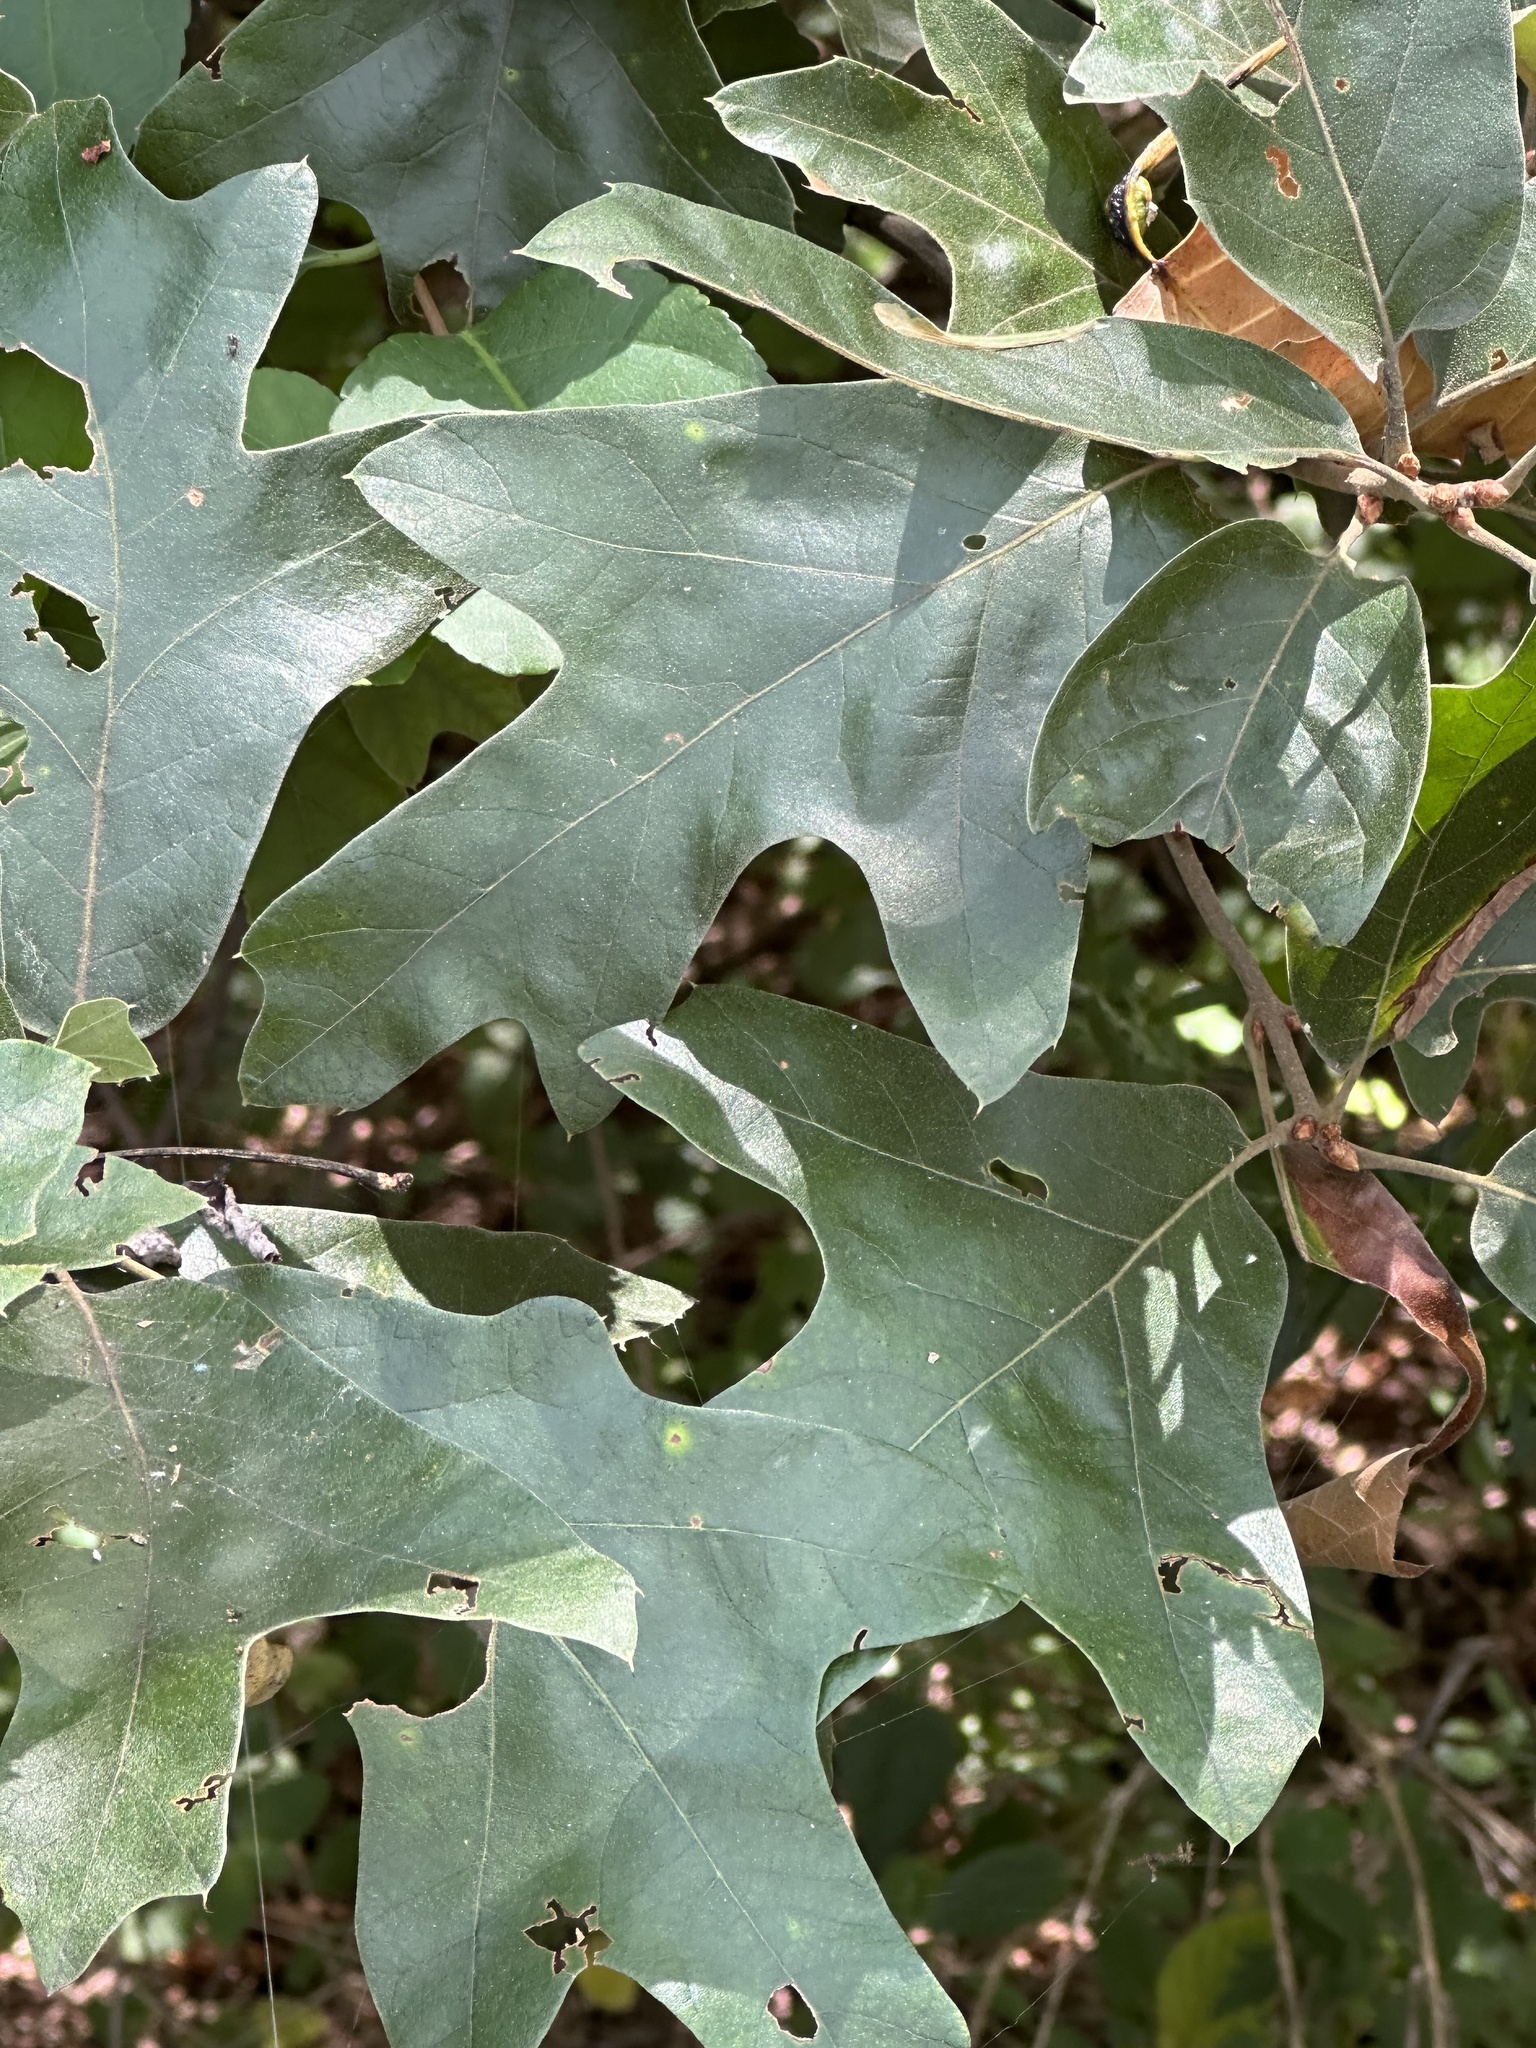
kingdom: Plantae
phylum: Tracheophyta
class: Magnoliopsida
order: Fagales
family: Fagaceae
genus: Quercus
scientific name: Quercus falcata
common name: Southern red oak
